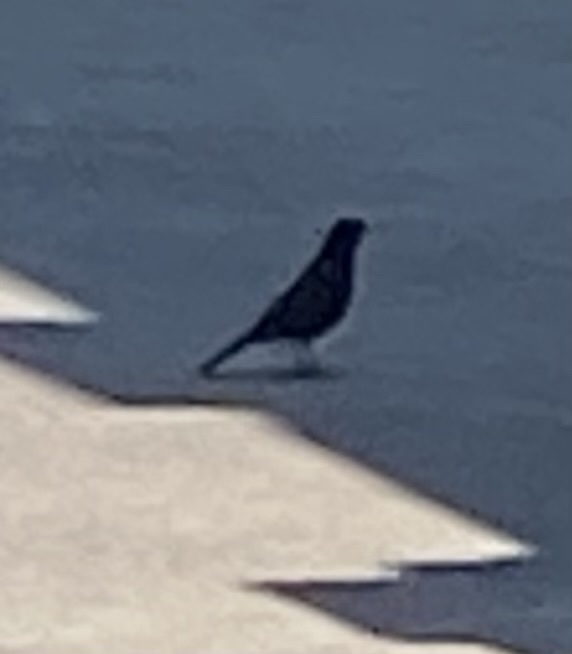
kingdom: Animalia
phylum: Chordata
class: Aves
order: Passeriformes
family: Turdidae
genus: Turdus
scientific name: Turdus merula
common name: Common blackbird
